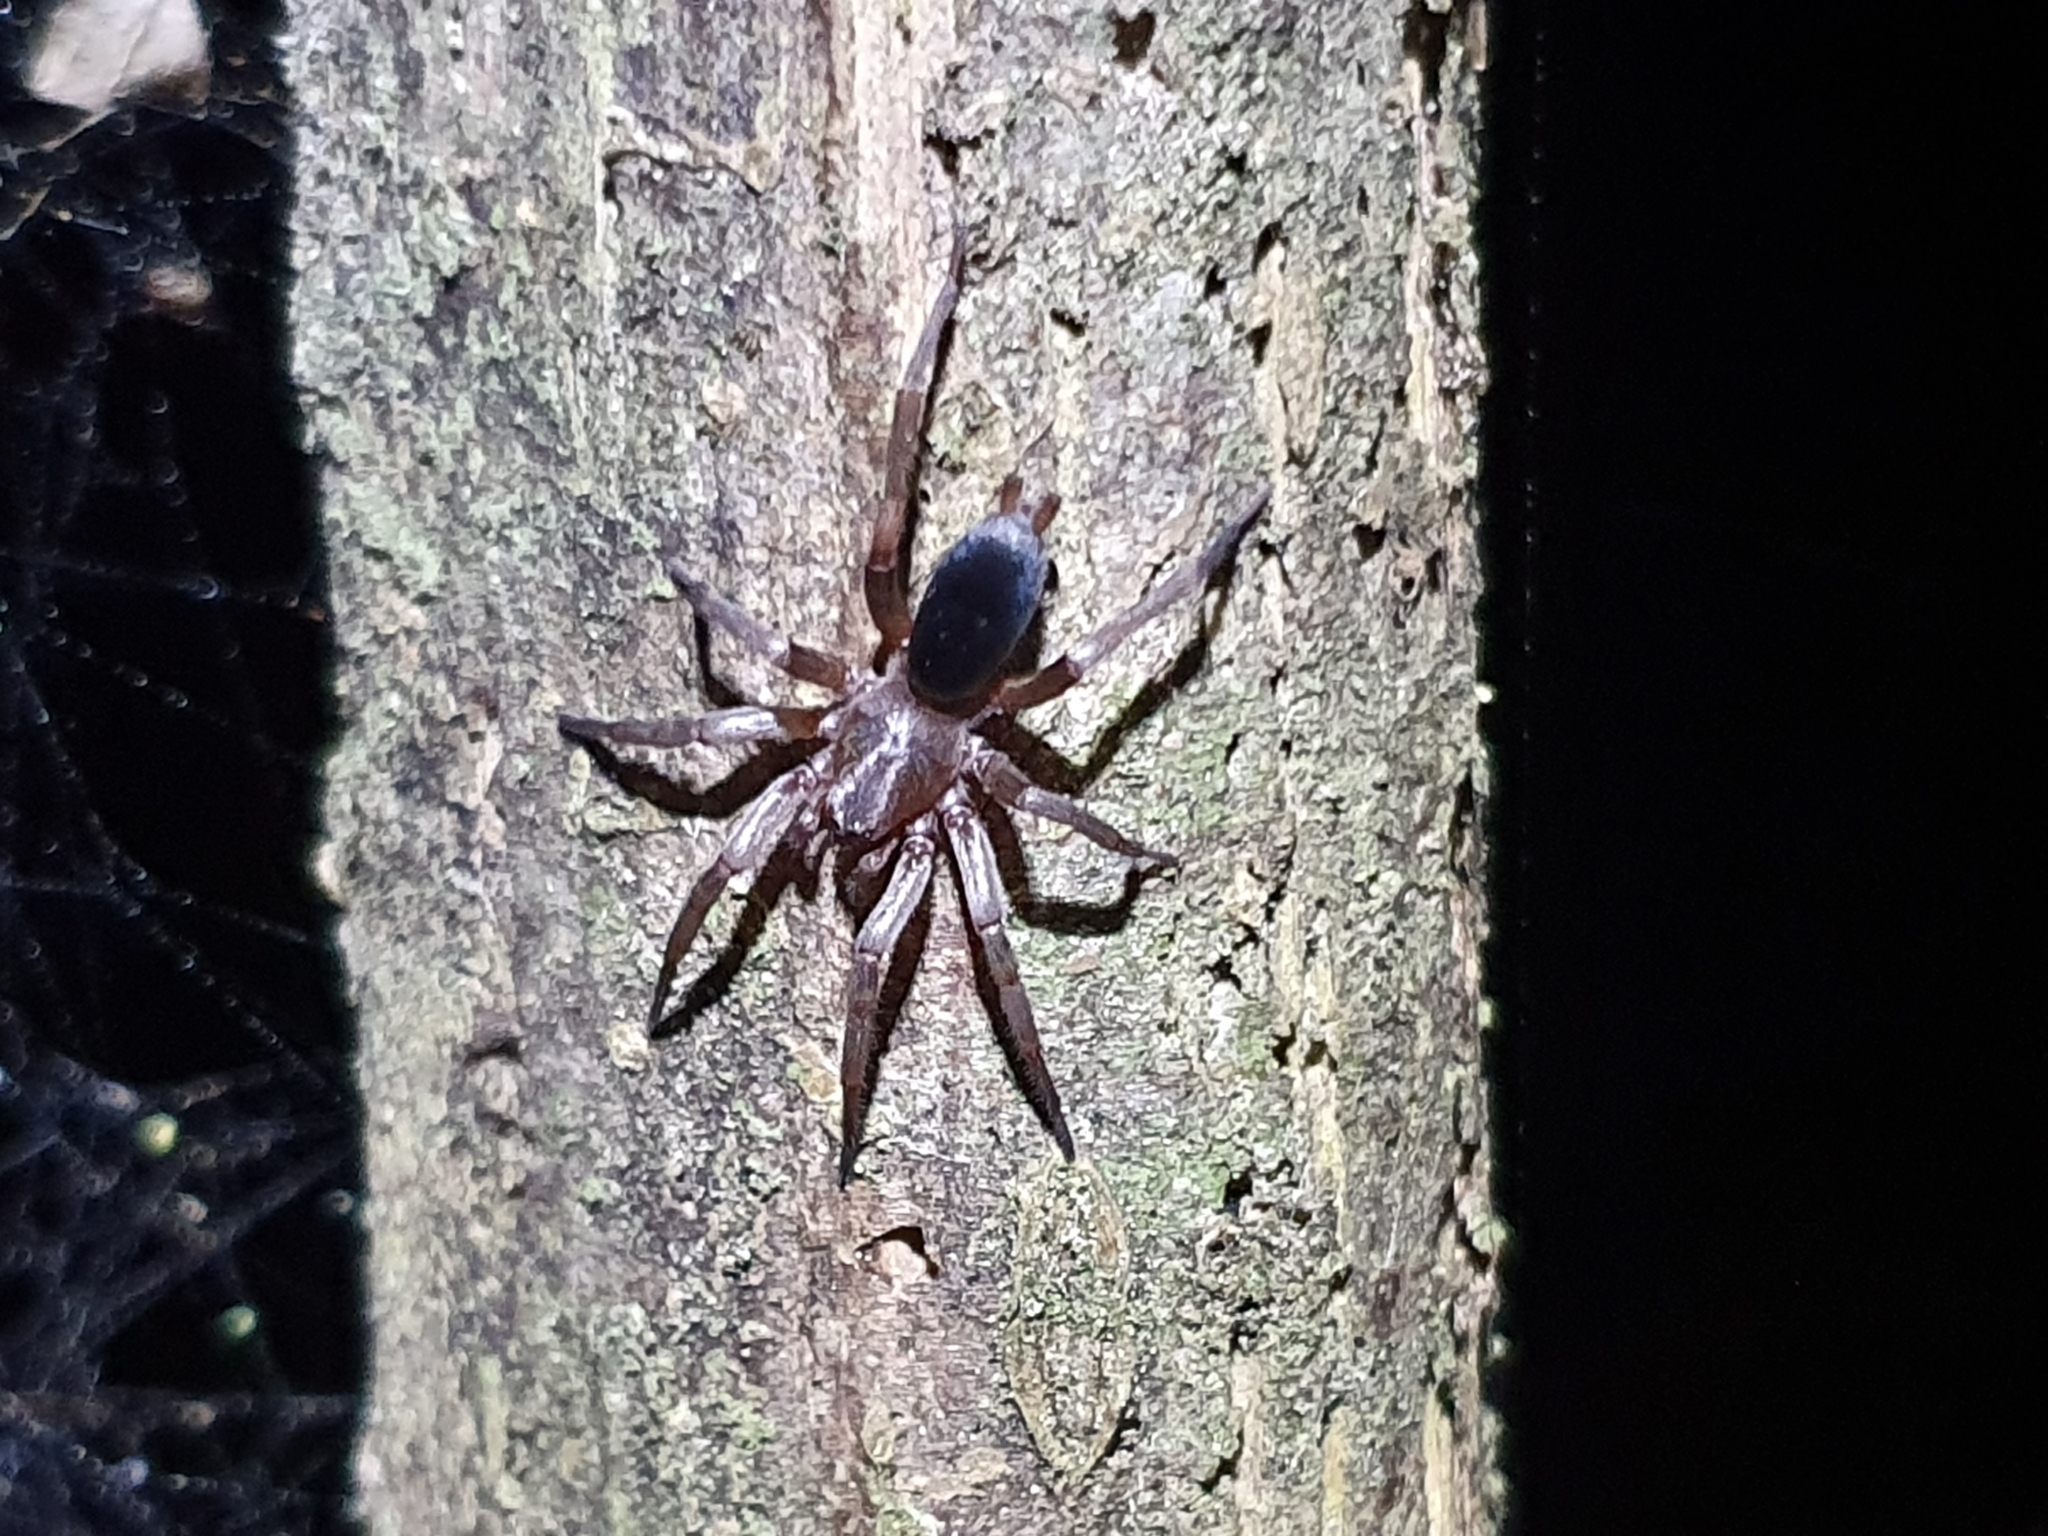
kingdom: Animalia
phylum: Arthropoda
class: Arachnida
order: Araneae
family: Gnaphosidae
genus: Hypodrassodes
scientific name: Hypodrassodes maoricus
